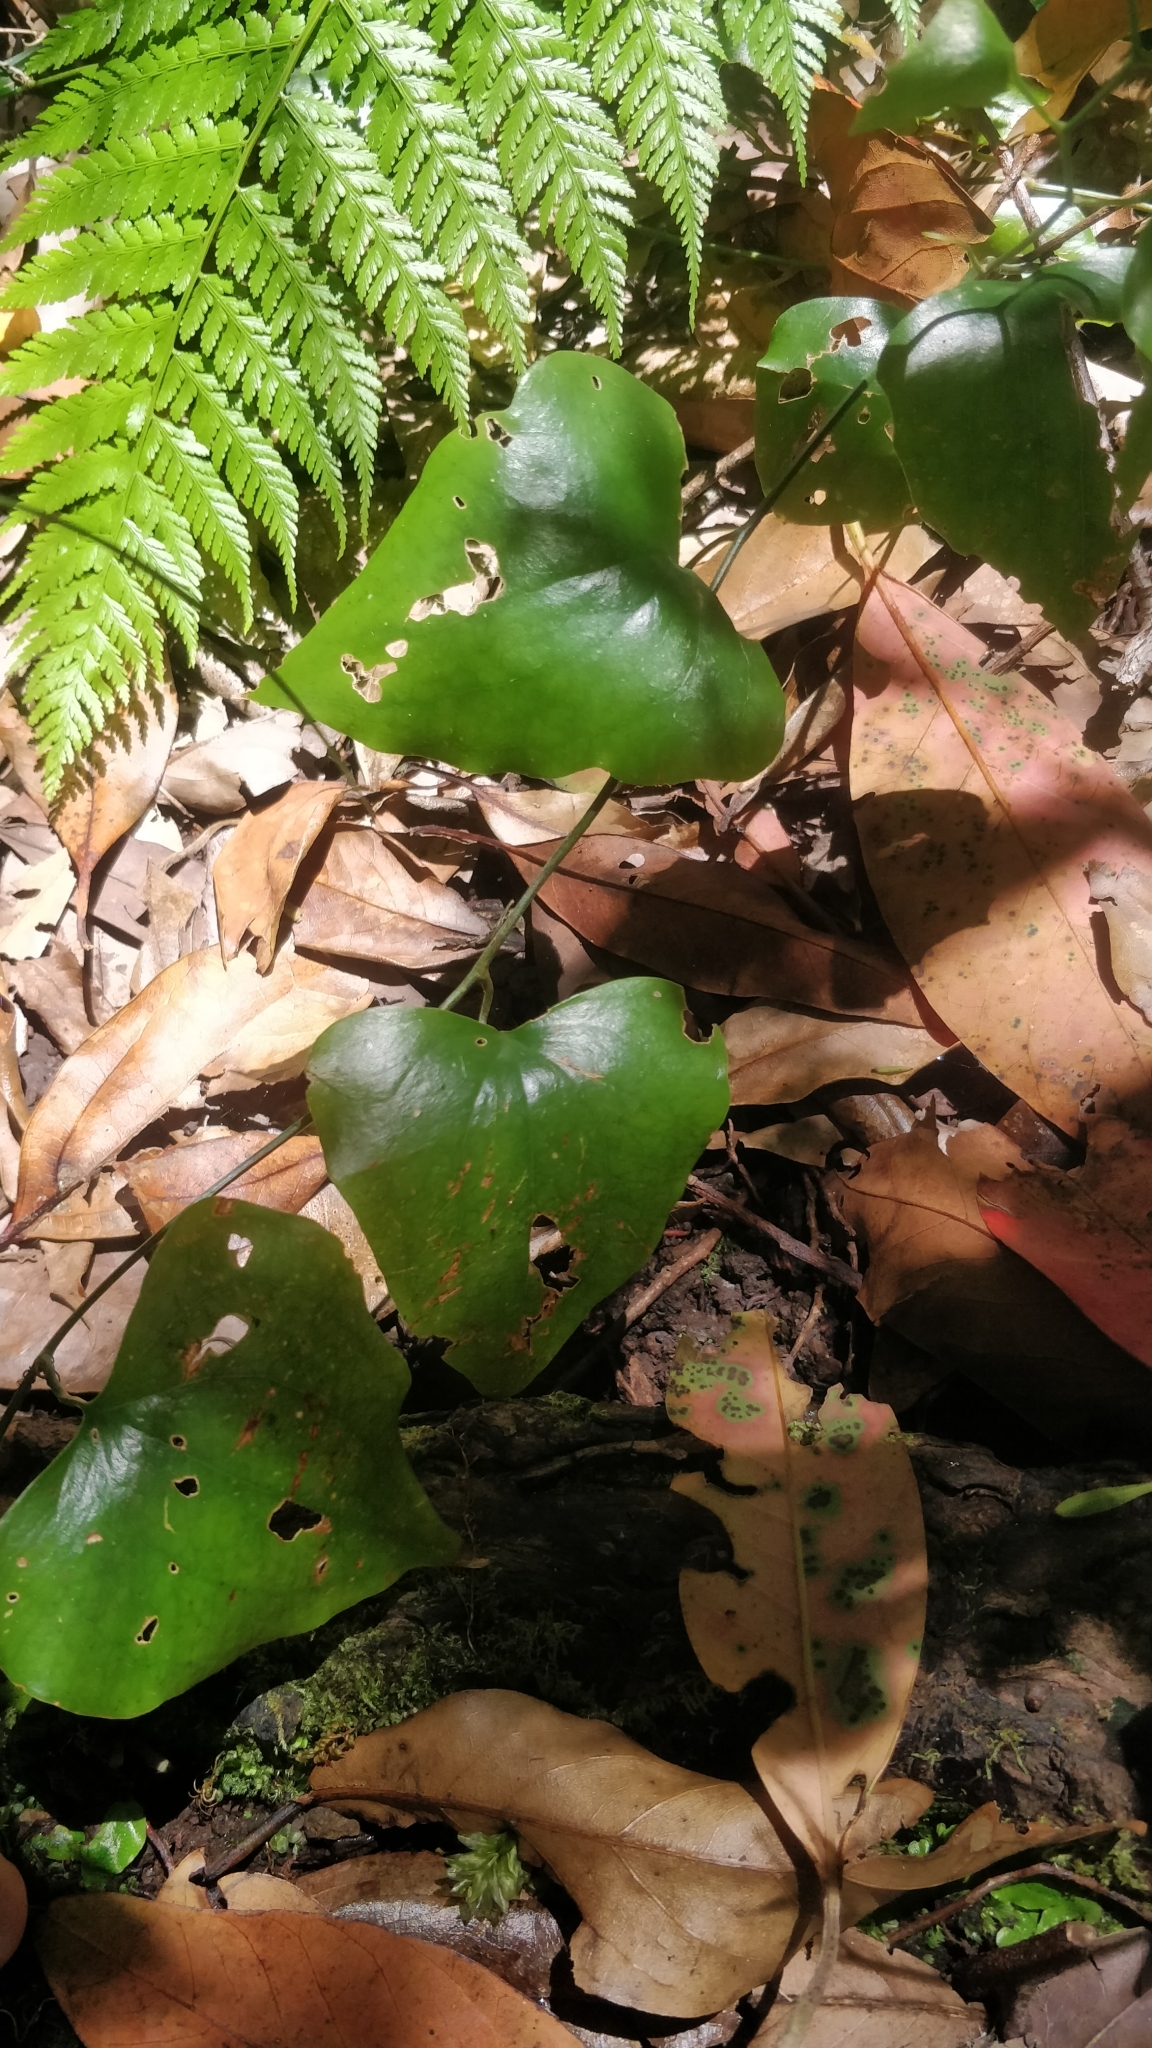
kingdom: Plantae
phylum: Tracheophyta
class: Liliopsida
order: Liliales
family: Smilacaceae
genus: Smilax
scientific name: Smilax aspera
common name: Common smilax
